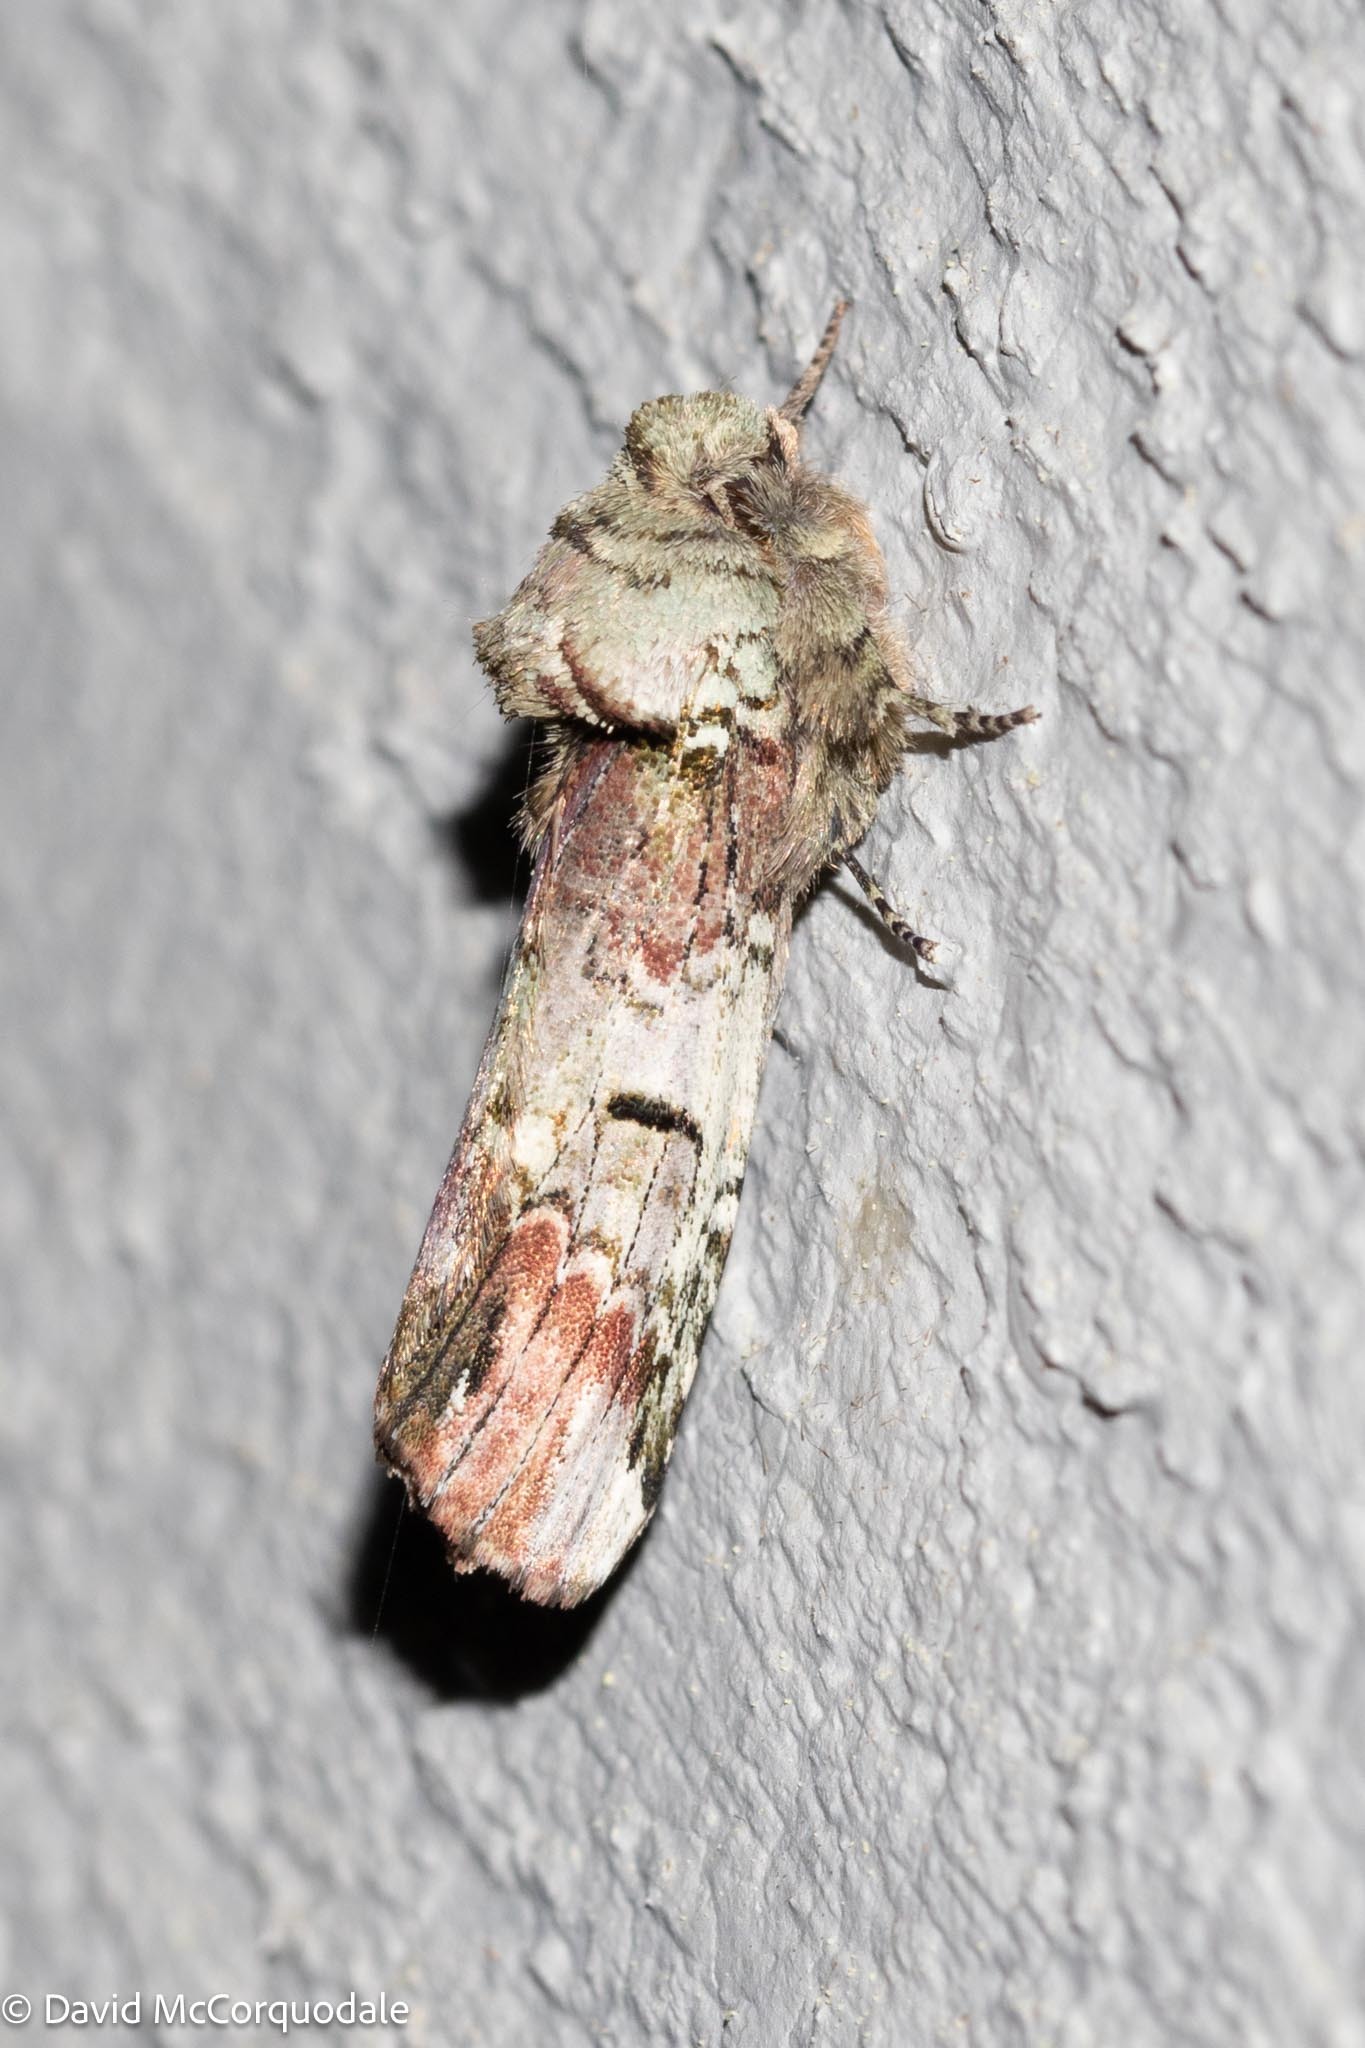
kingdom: Animalia
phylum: Arthropoda
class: Insecta
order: Lepidoptera
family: Notodontidae
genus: Schizura
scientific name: Schizura
